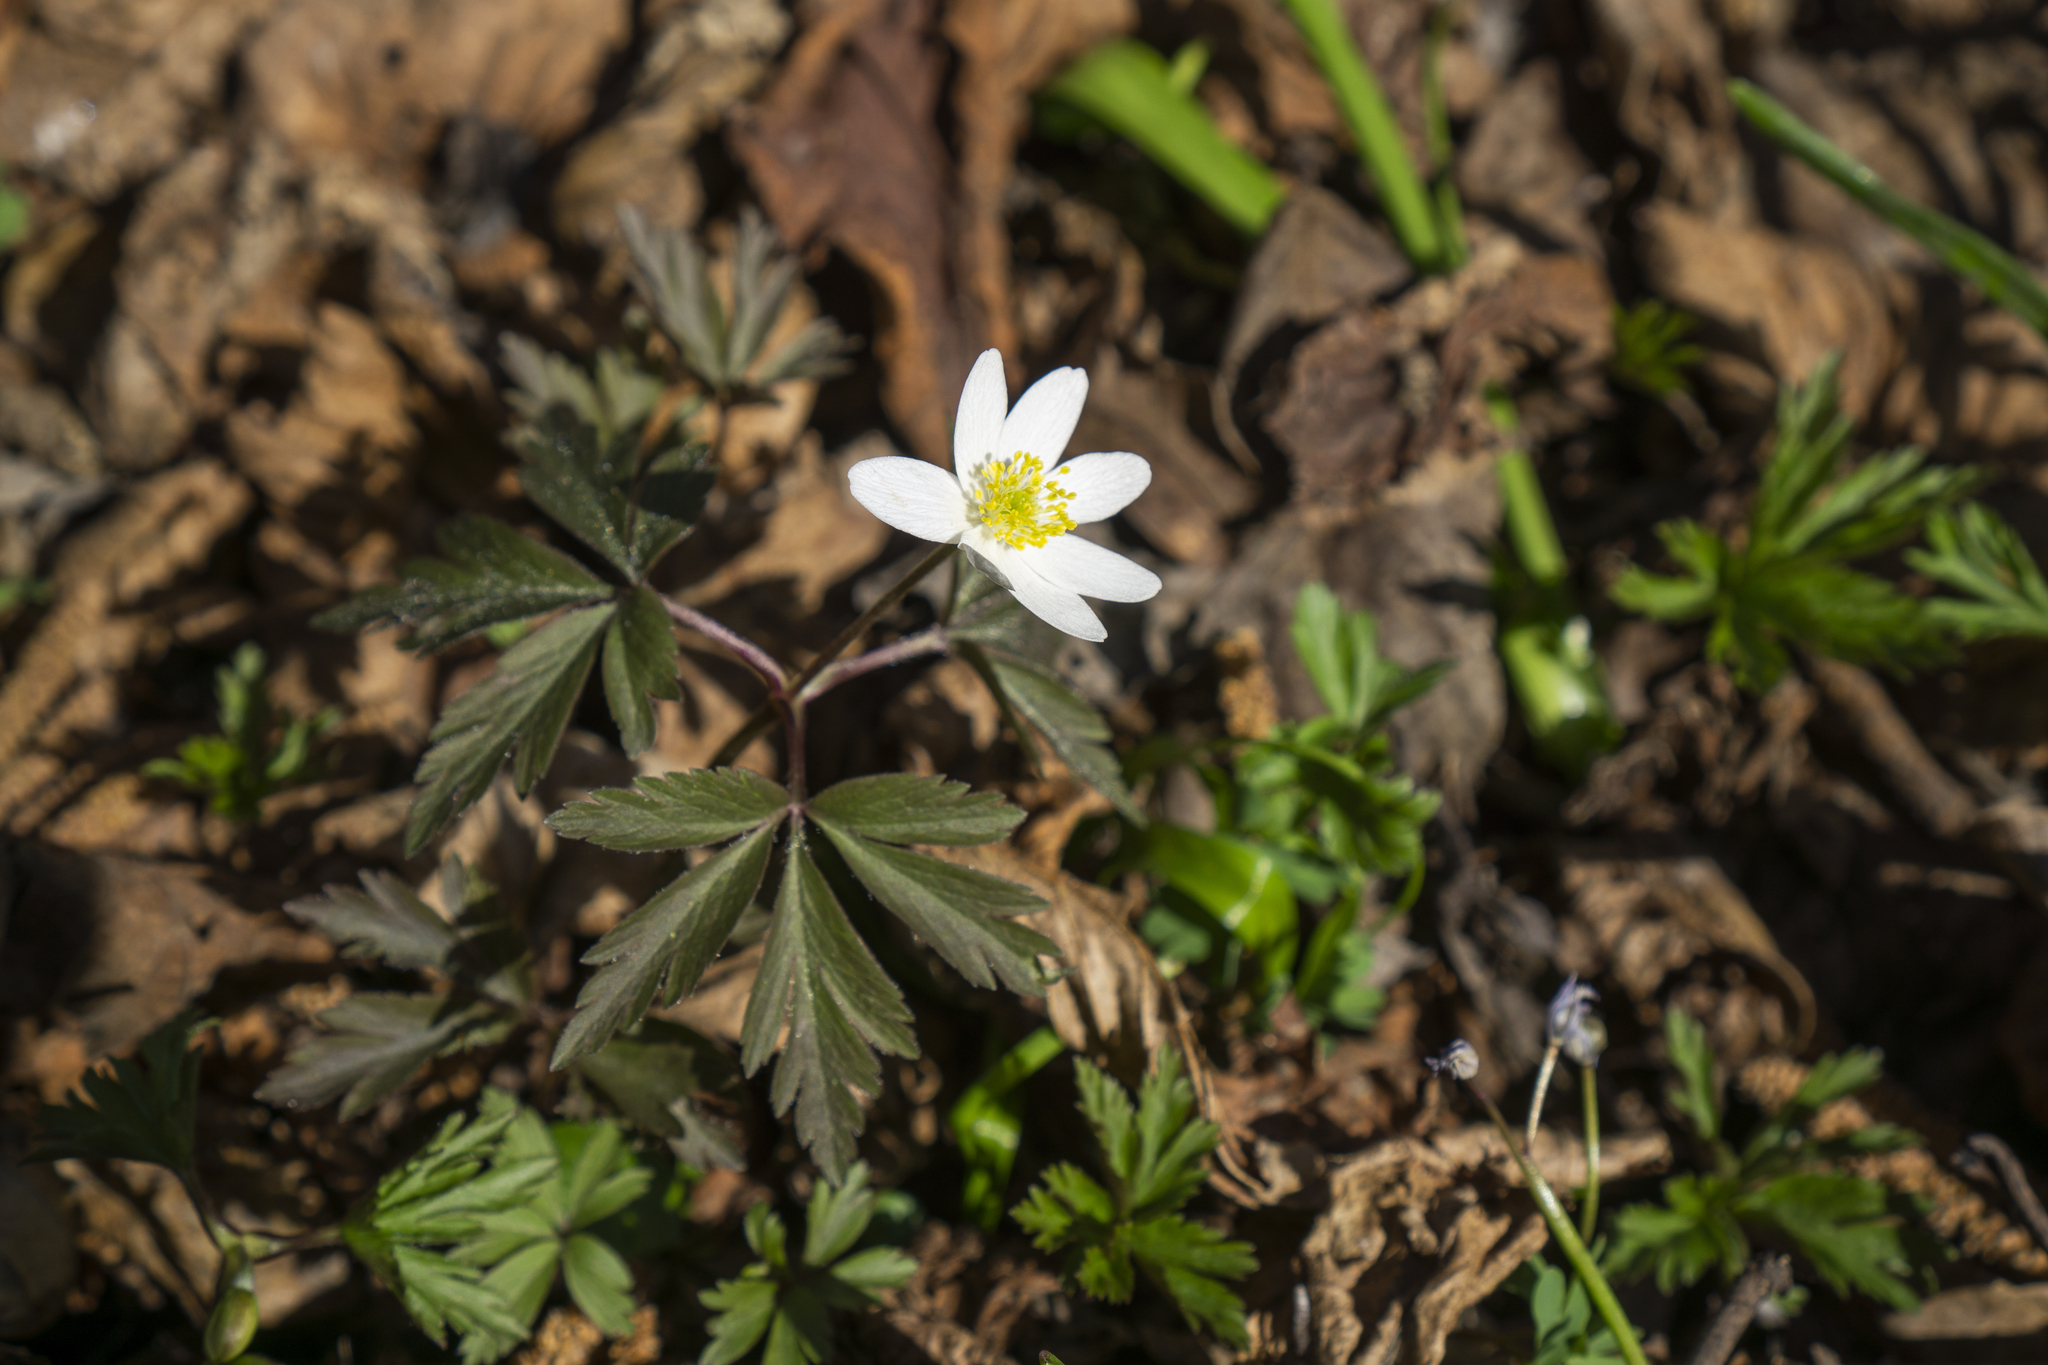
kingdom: Plantae
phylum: Tracheophyta
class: Magnoliopsida
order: Ranunculales
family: Ranunculaceae
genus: Anemone
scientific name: Anemone nemorosa
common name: Wood anemone
